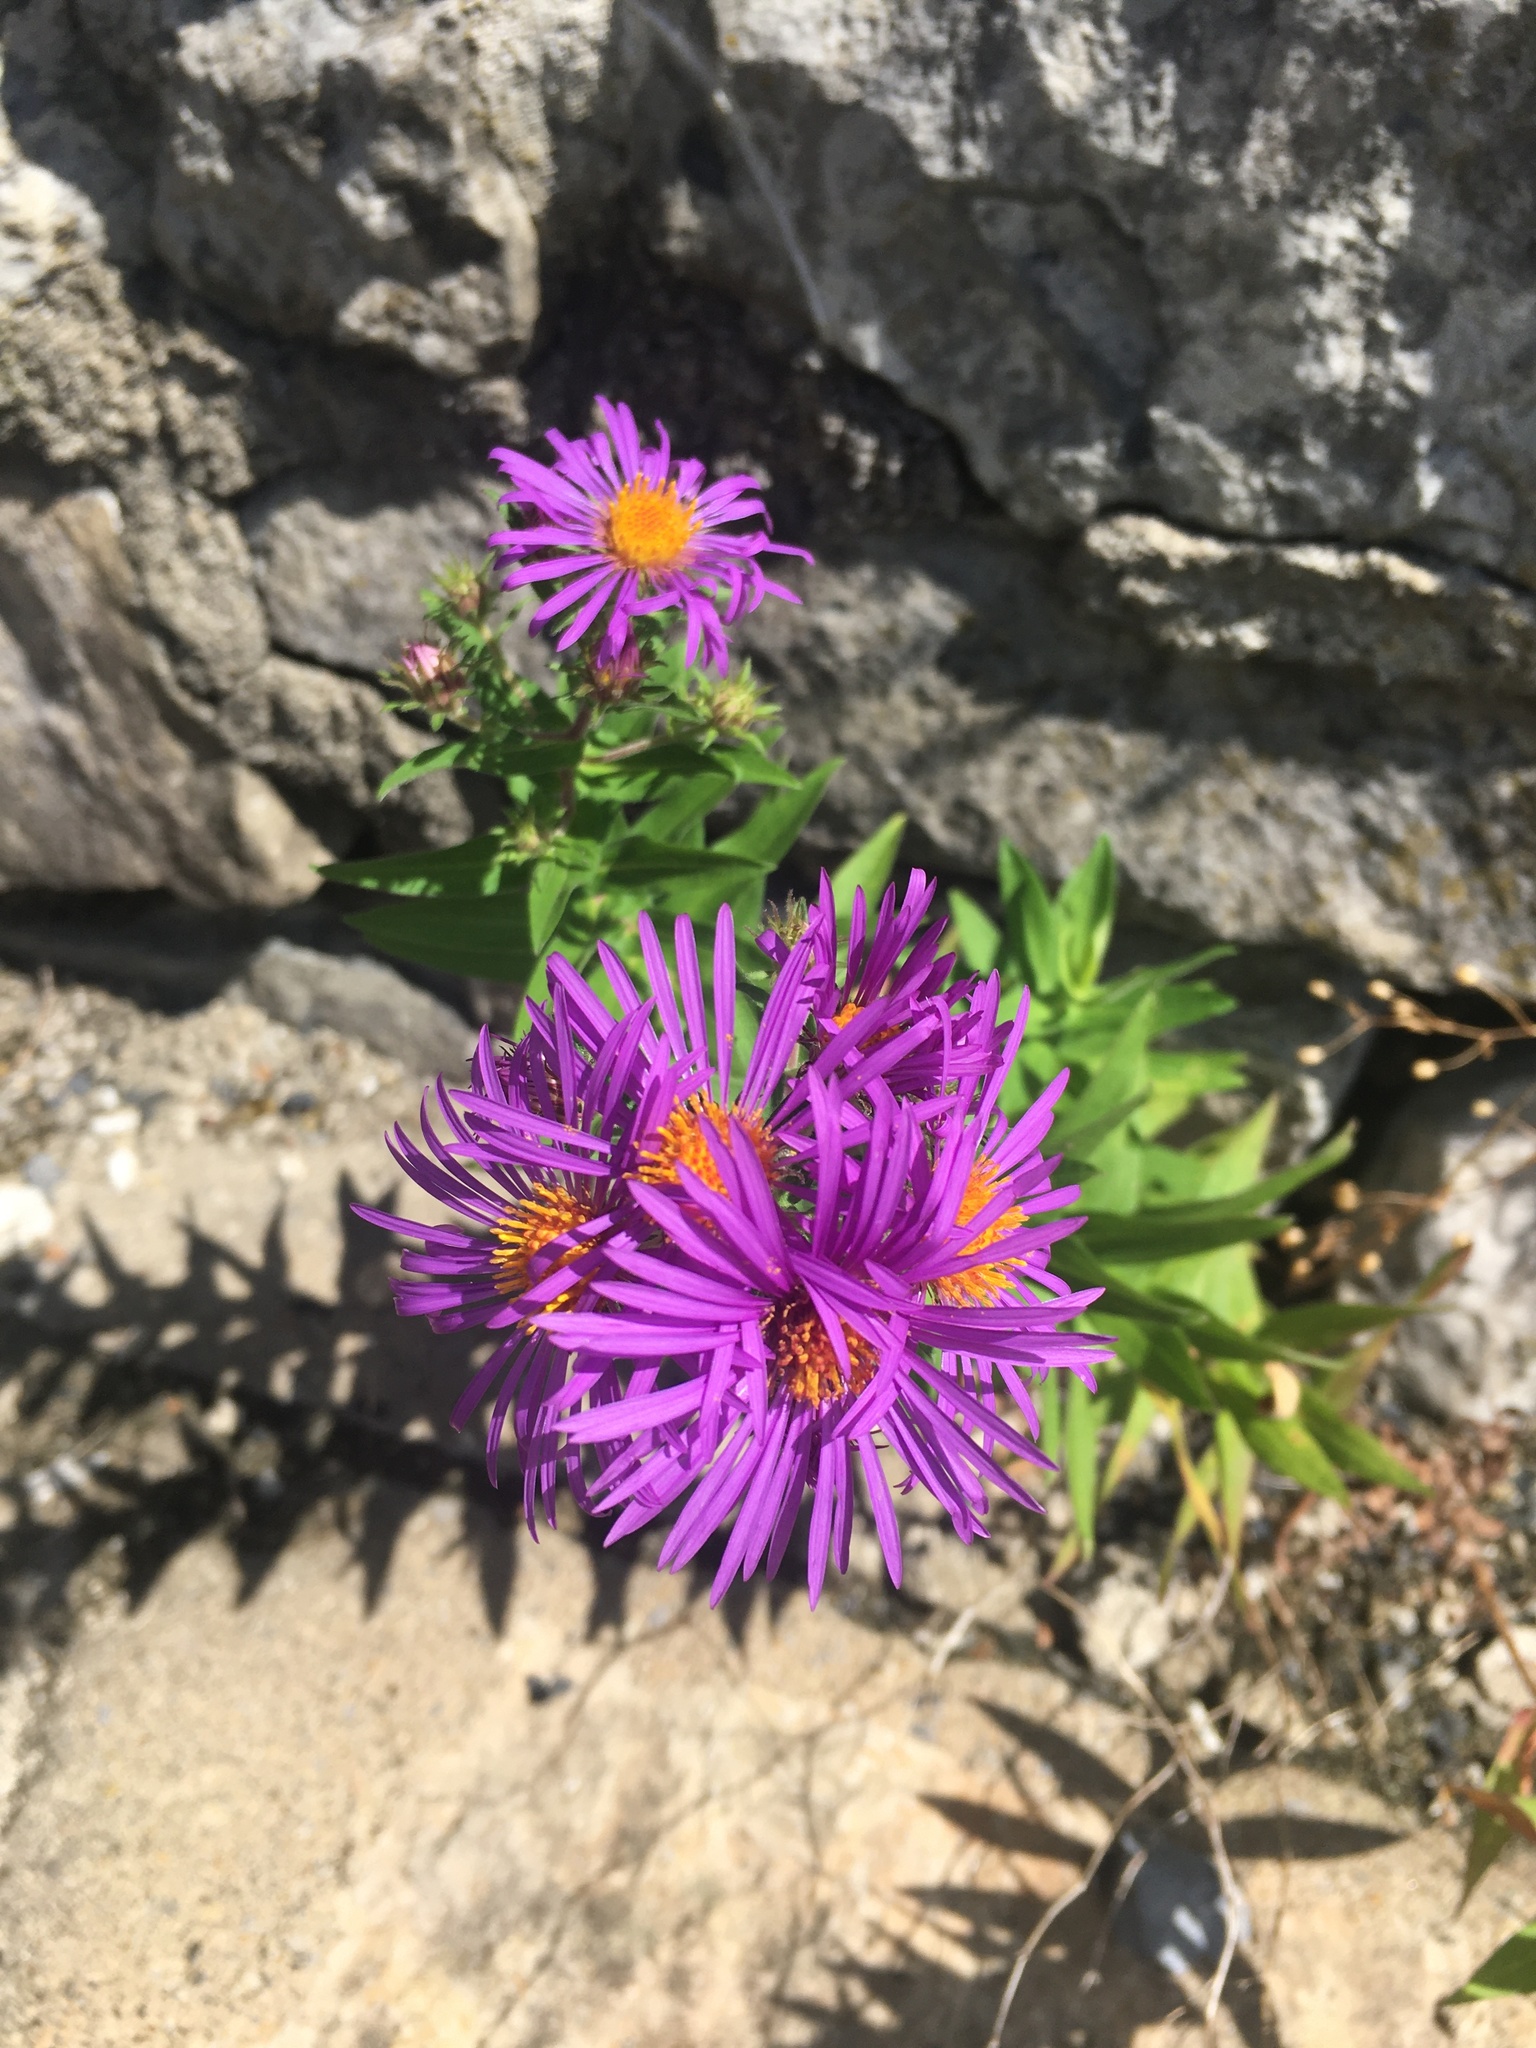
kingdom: Plantae
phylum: Tracheophyta
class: Magnoliopsida
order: Asterales
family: Asteraceae
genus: Symphyotrichum
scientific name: Symphyotrichum novae-angliae
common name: Michaelmas daisy
